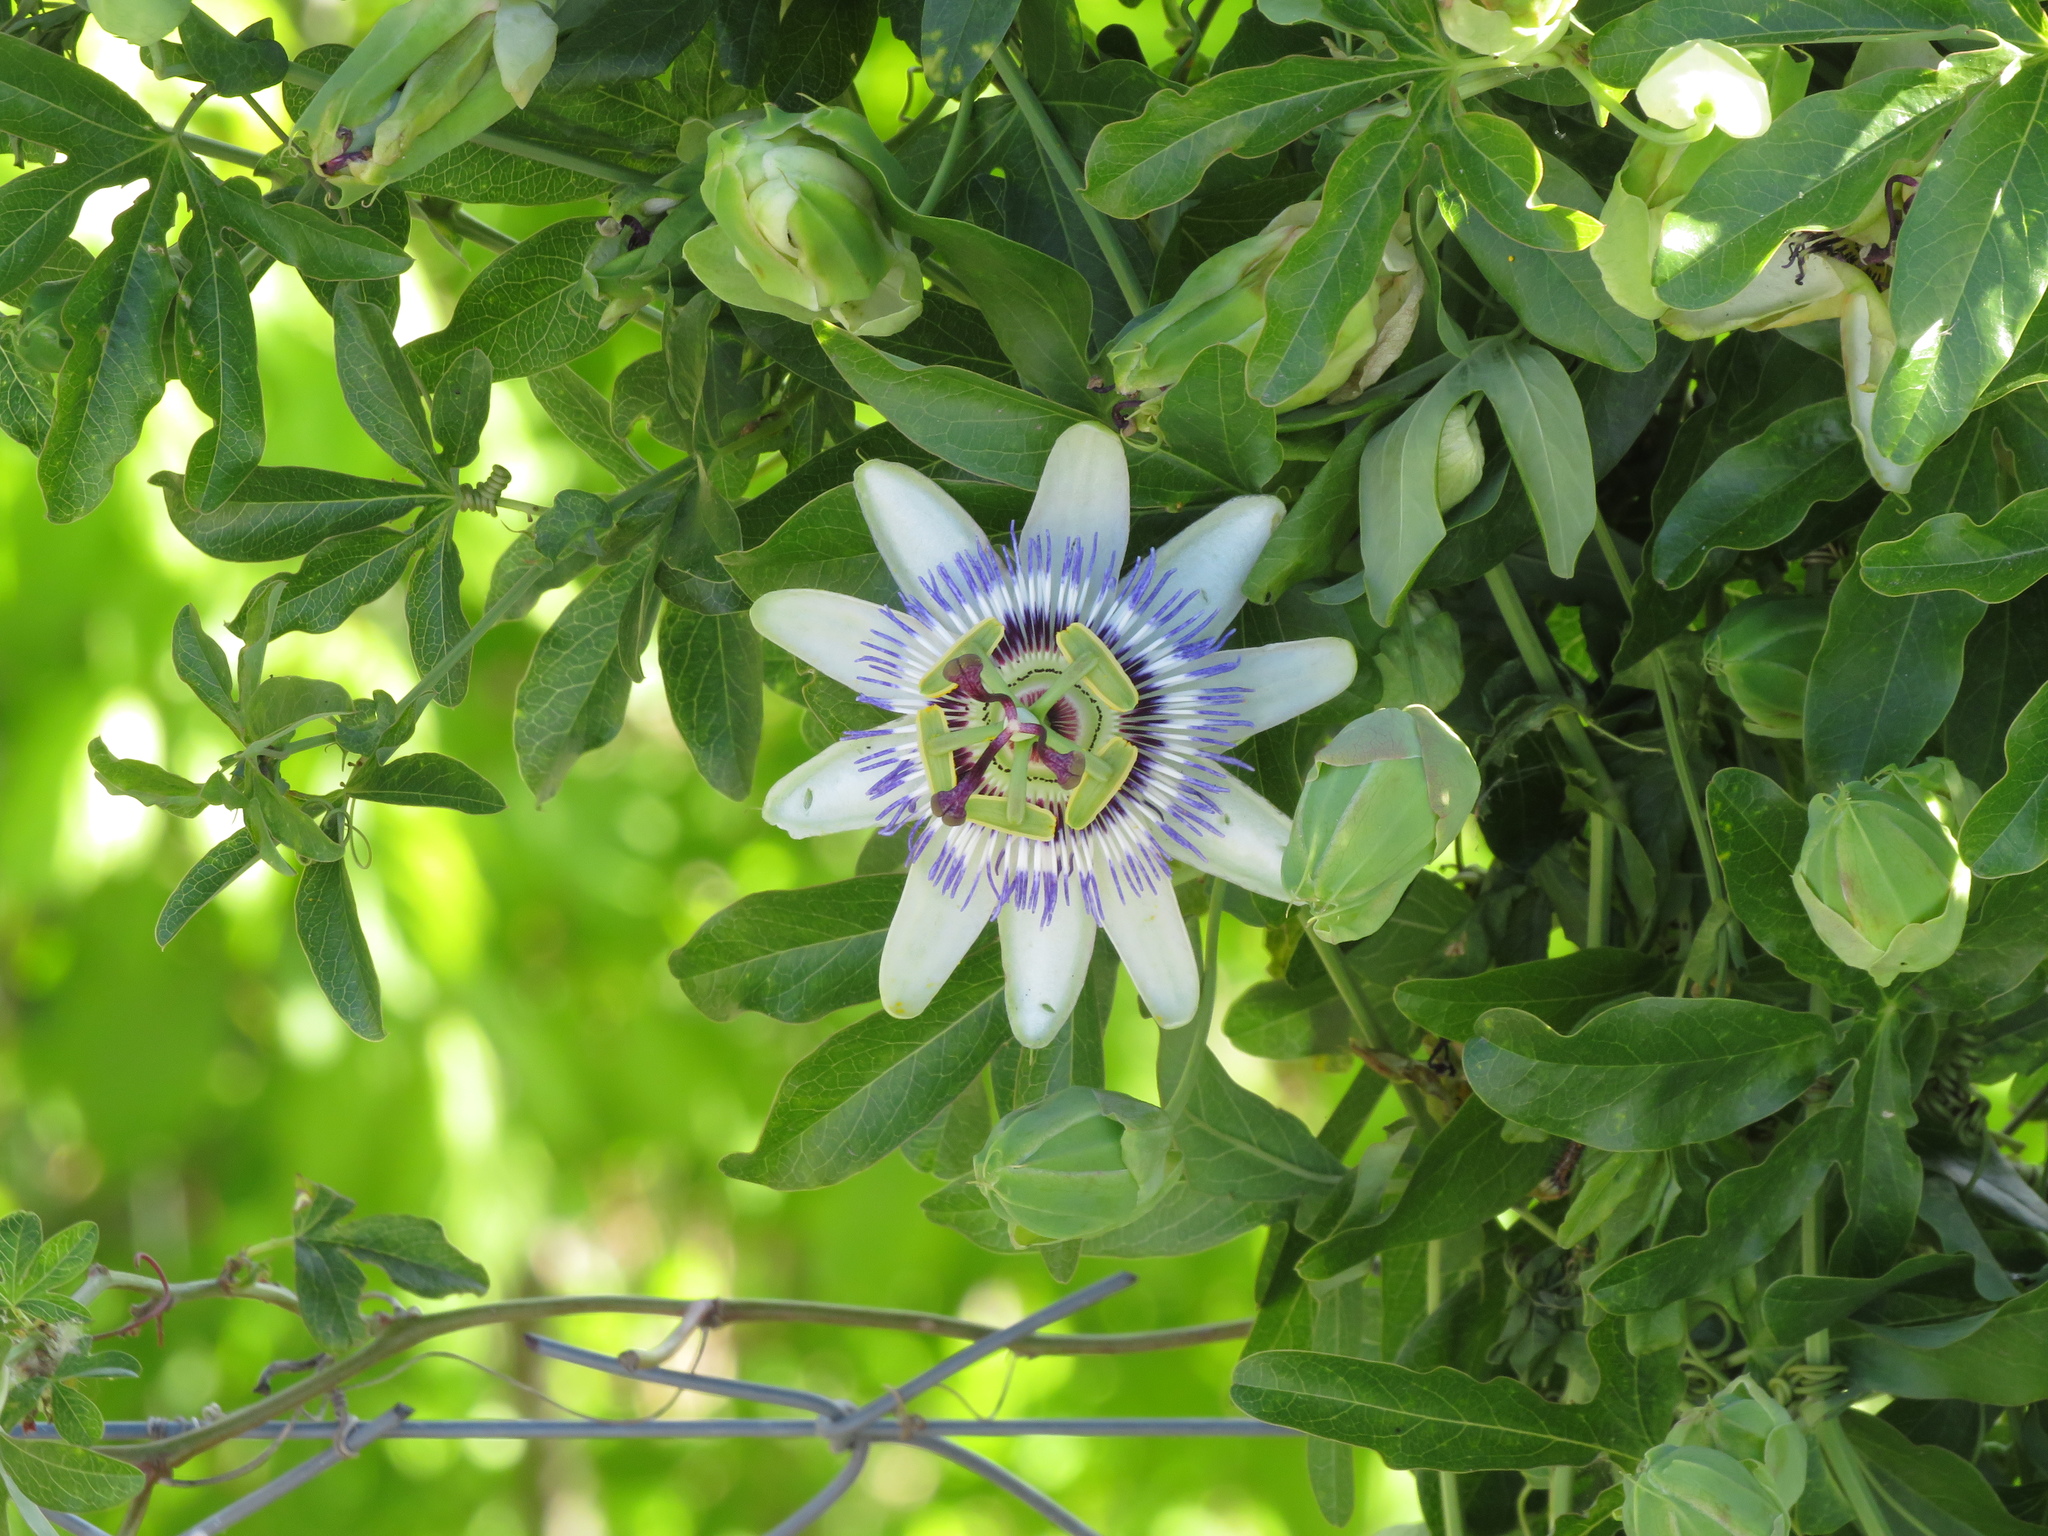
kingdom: Plantae
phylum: Tracheophyta
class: Magnoliopsida
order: Malpighiales
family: Passifloraceae
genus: Passiflora
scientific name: Passiflora caerulea
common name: Blue passionflower
